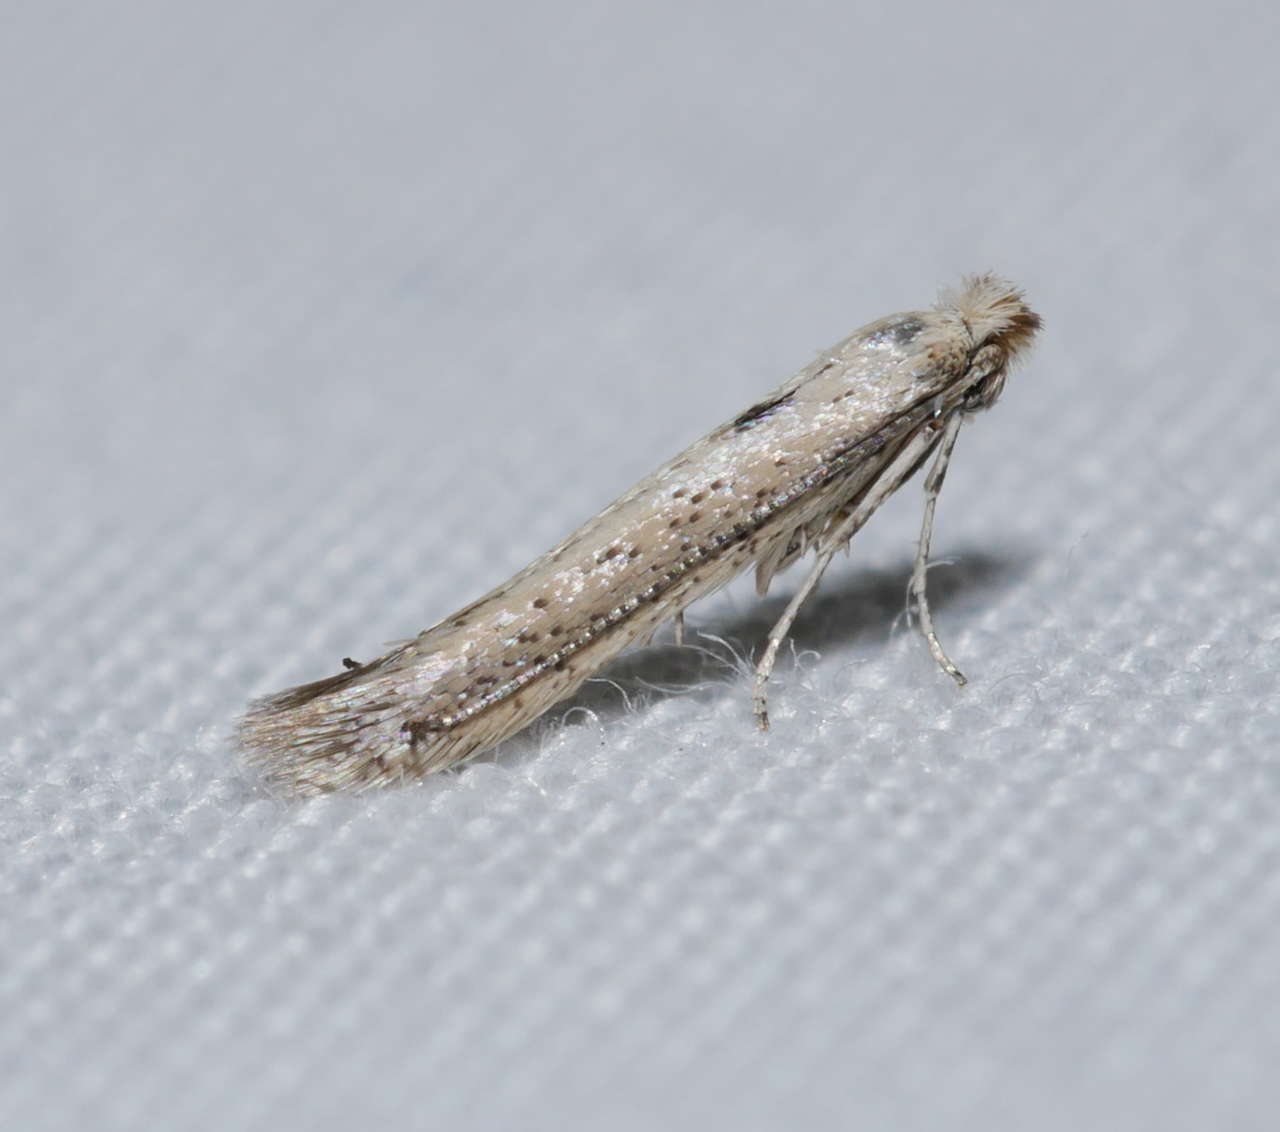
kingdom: Animalia
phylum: Arthropoda
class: Insecta
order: Lepidoptera
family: Bedelliidae
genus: Bedellia
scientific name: Bedellia somnulentella
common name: Morning-glory leafminer moth
